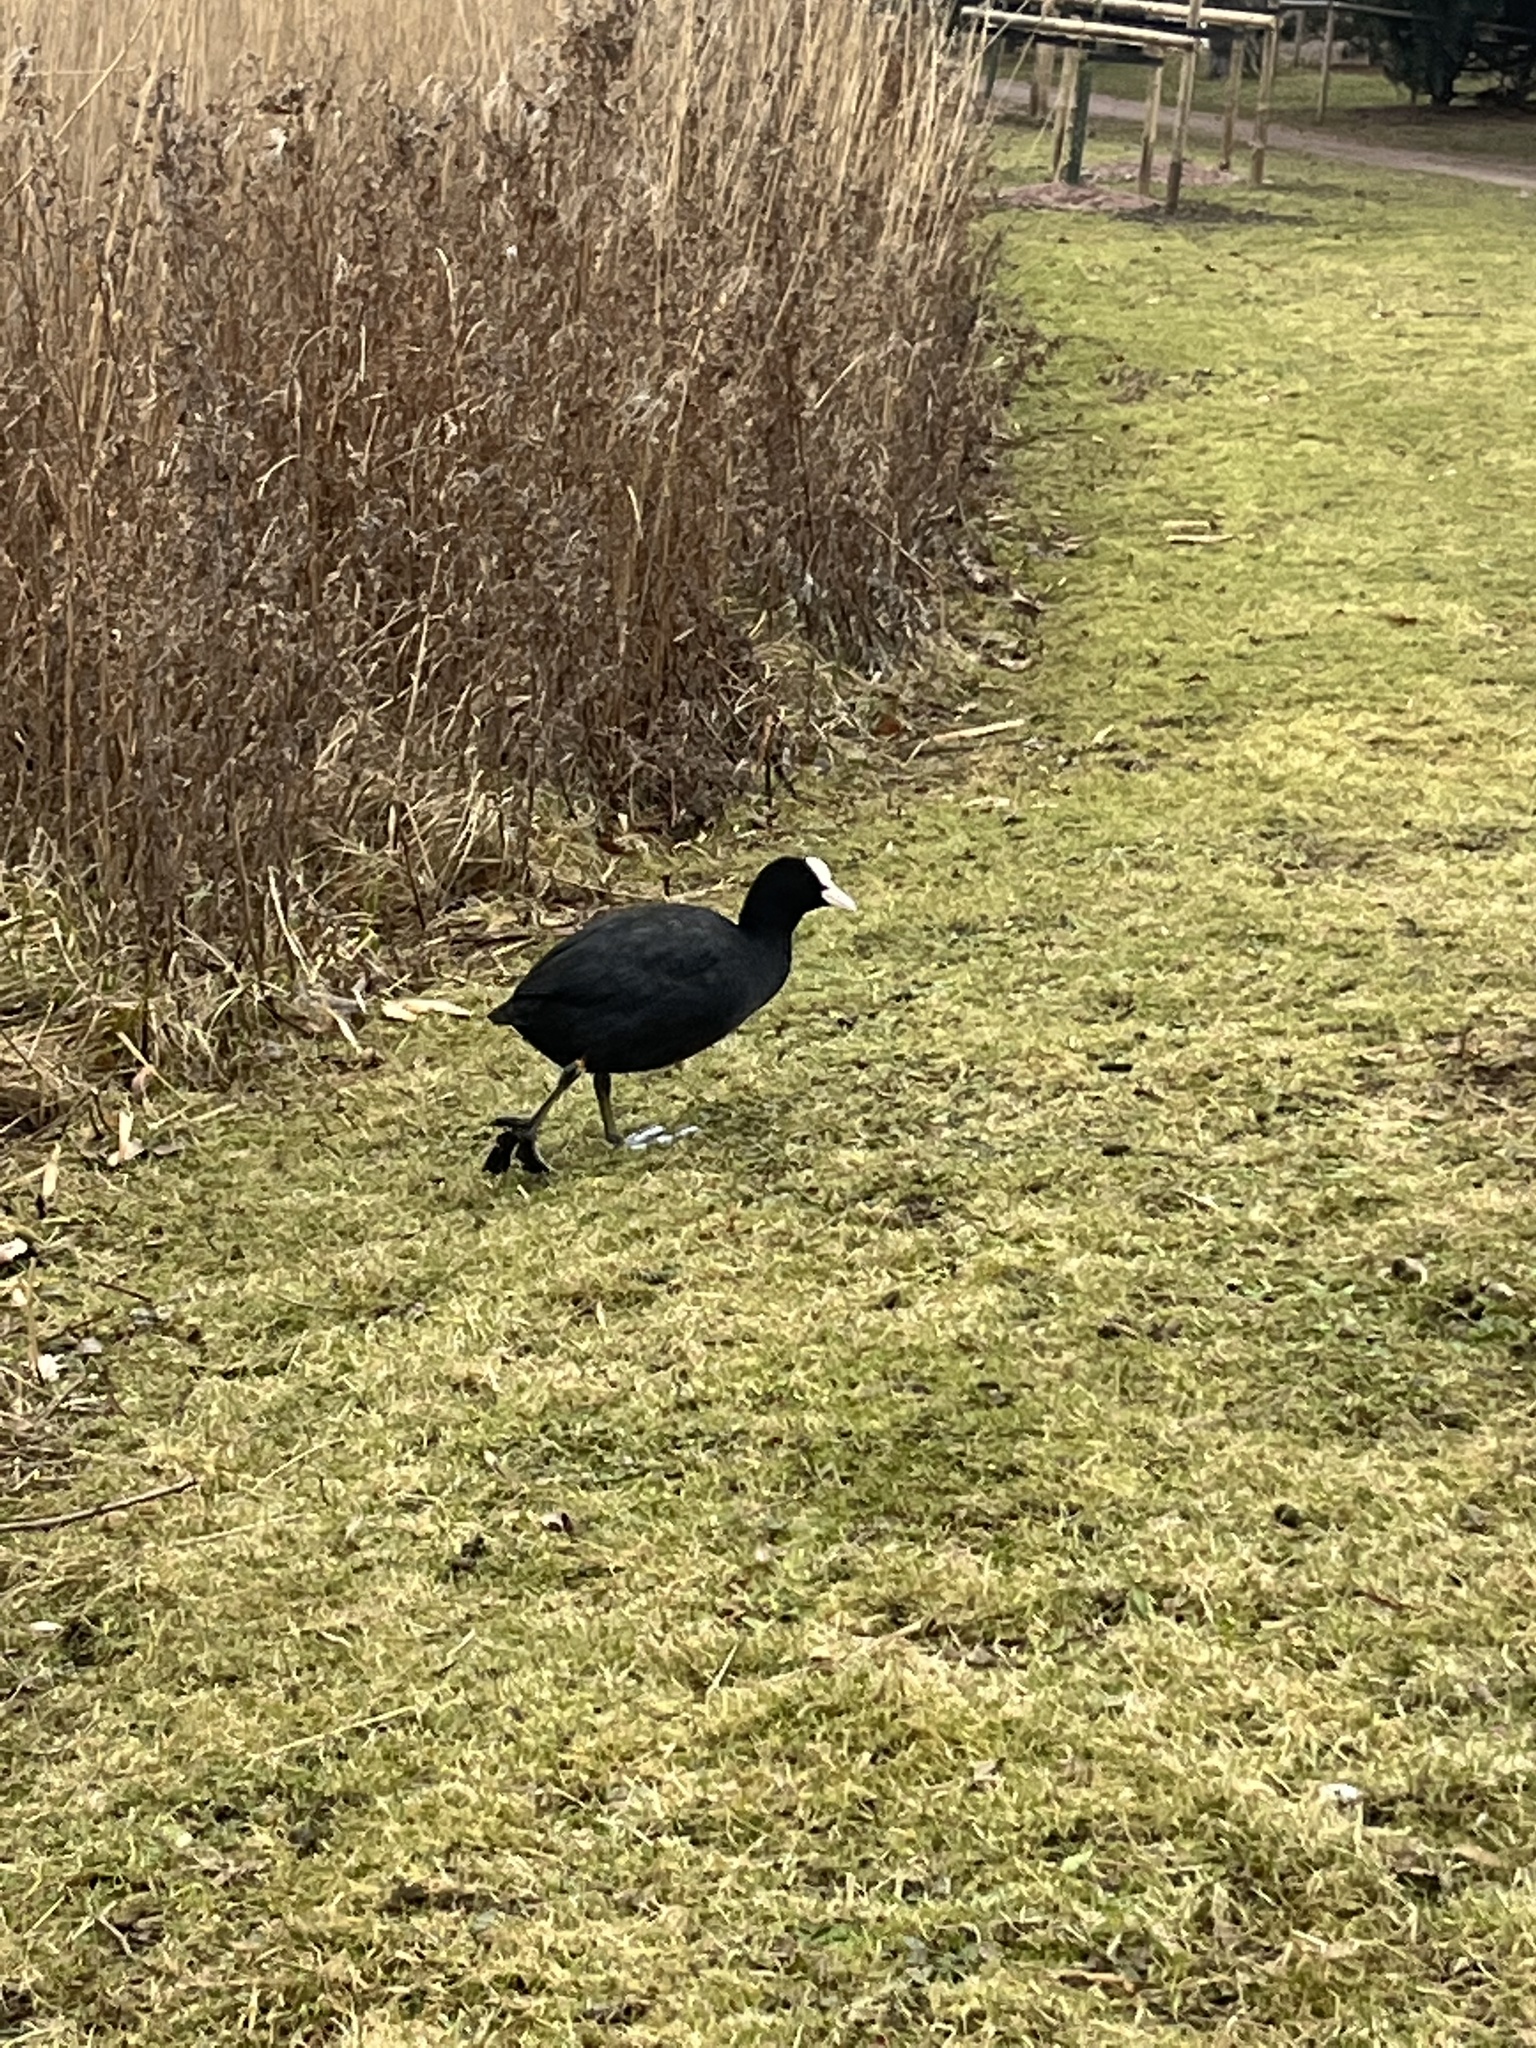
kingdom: Animalia
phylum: Chordata
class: Aves
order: Gruiformes
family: Rallidae
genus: Fulica
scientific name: Fulica atra
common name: Eurasian coot
